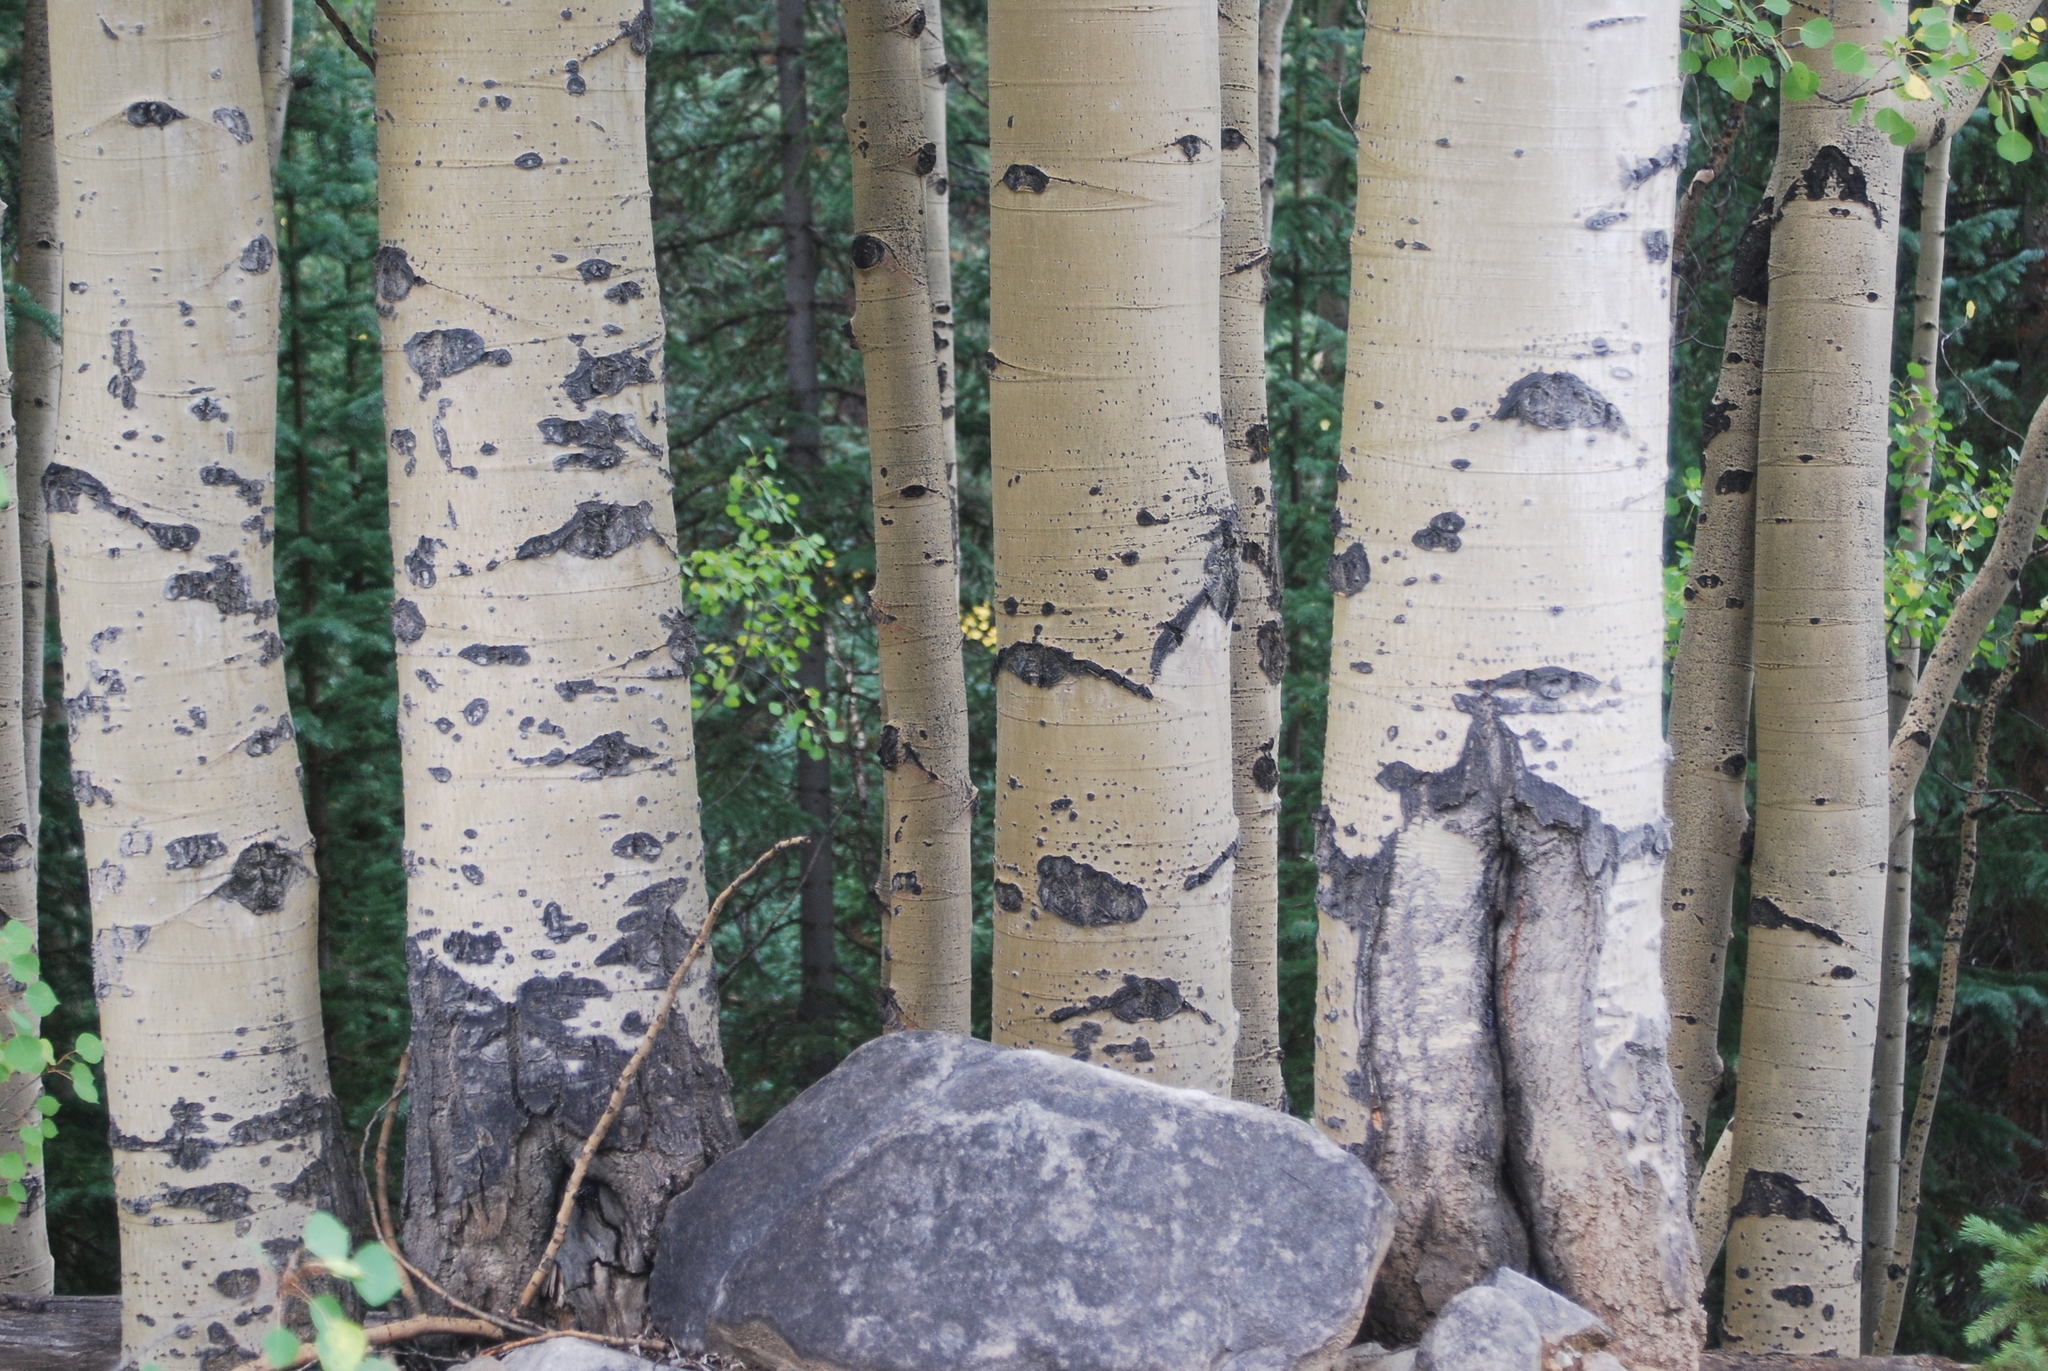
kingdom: Plantae
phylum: Tracheophyta
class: Magnoliopsida
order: Malpighiales
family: Salicaceae
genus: Populus
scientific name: Populus tremuloides
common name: Quaking aspen
